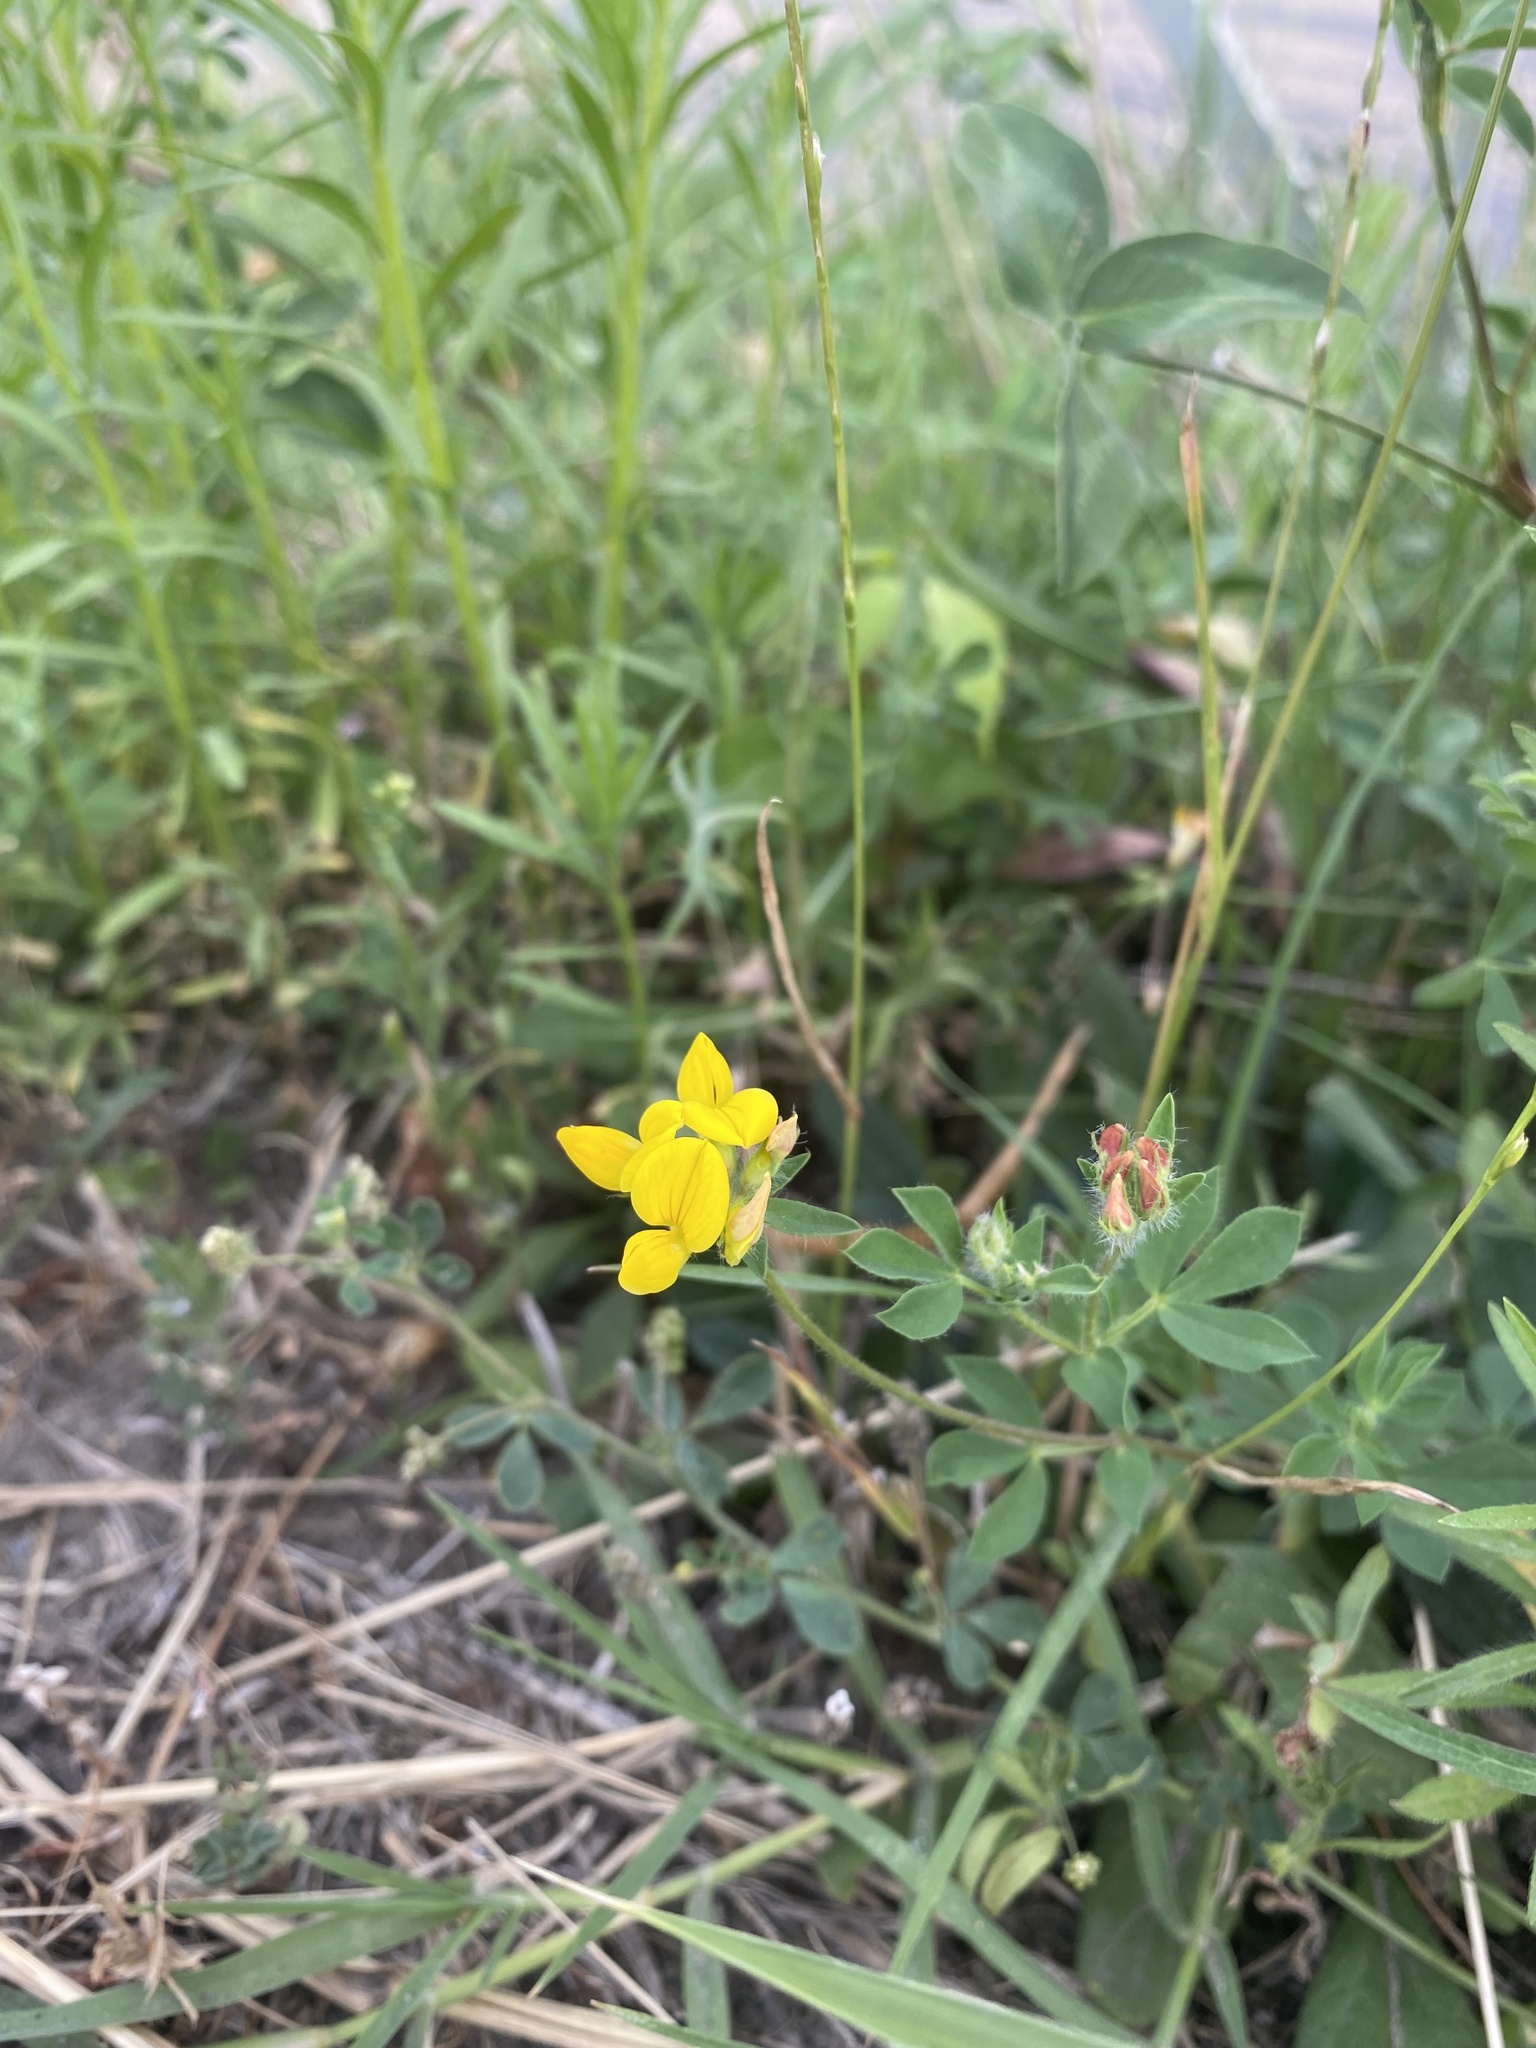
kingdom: Plantae
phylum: Tracheophyta
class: Magnoliopsida
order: Fabales
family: Fabaceae
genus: Lotus
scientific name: Lotus corniculatus
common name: Common bird's-foot-trefoil
